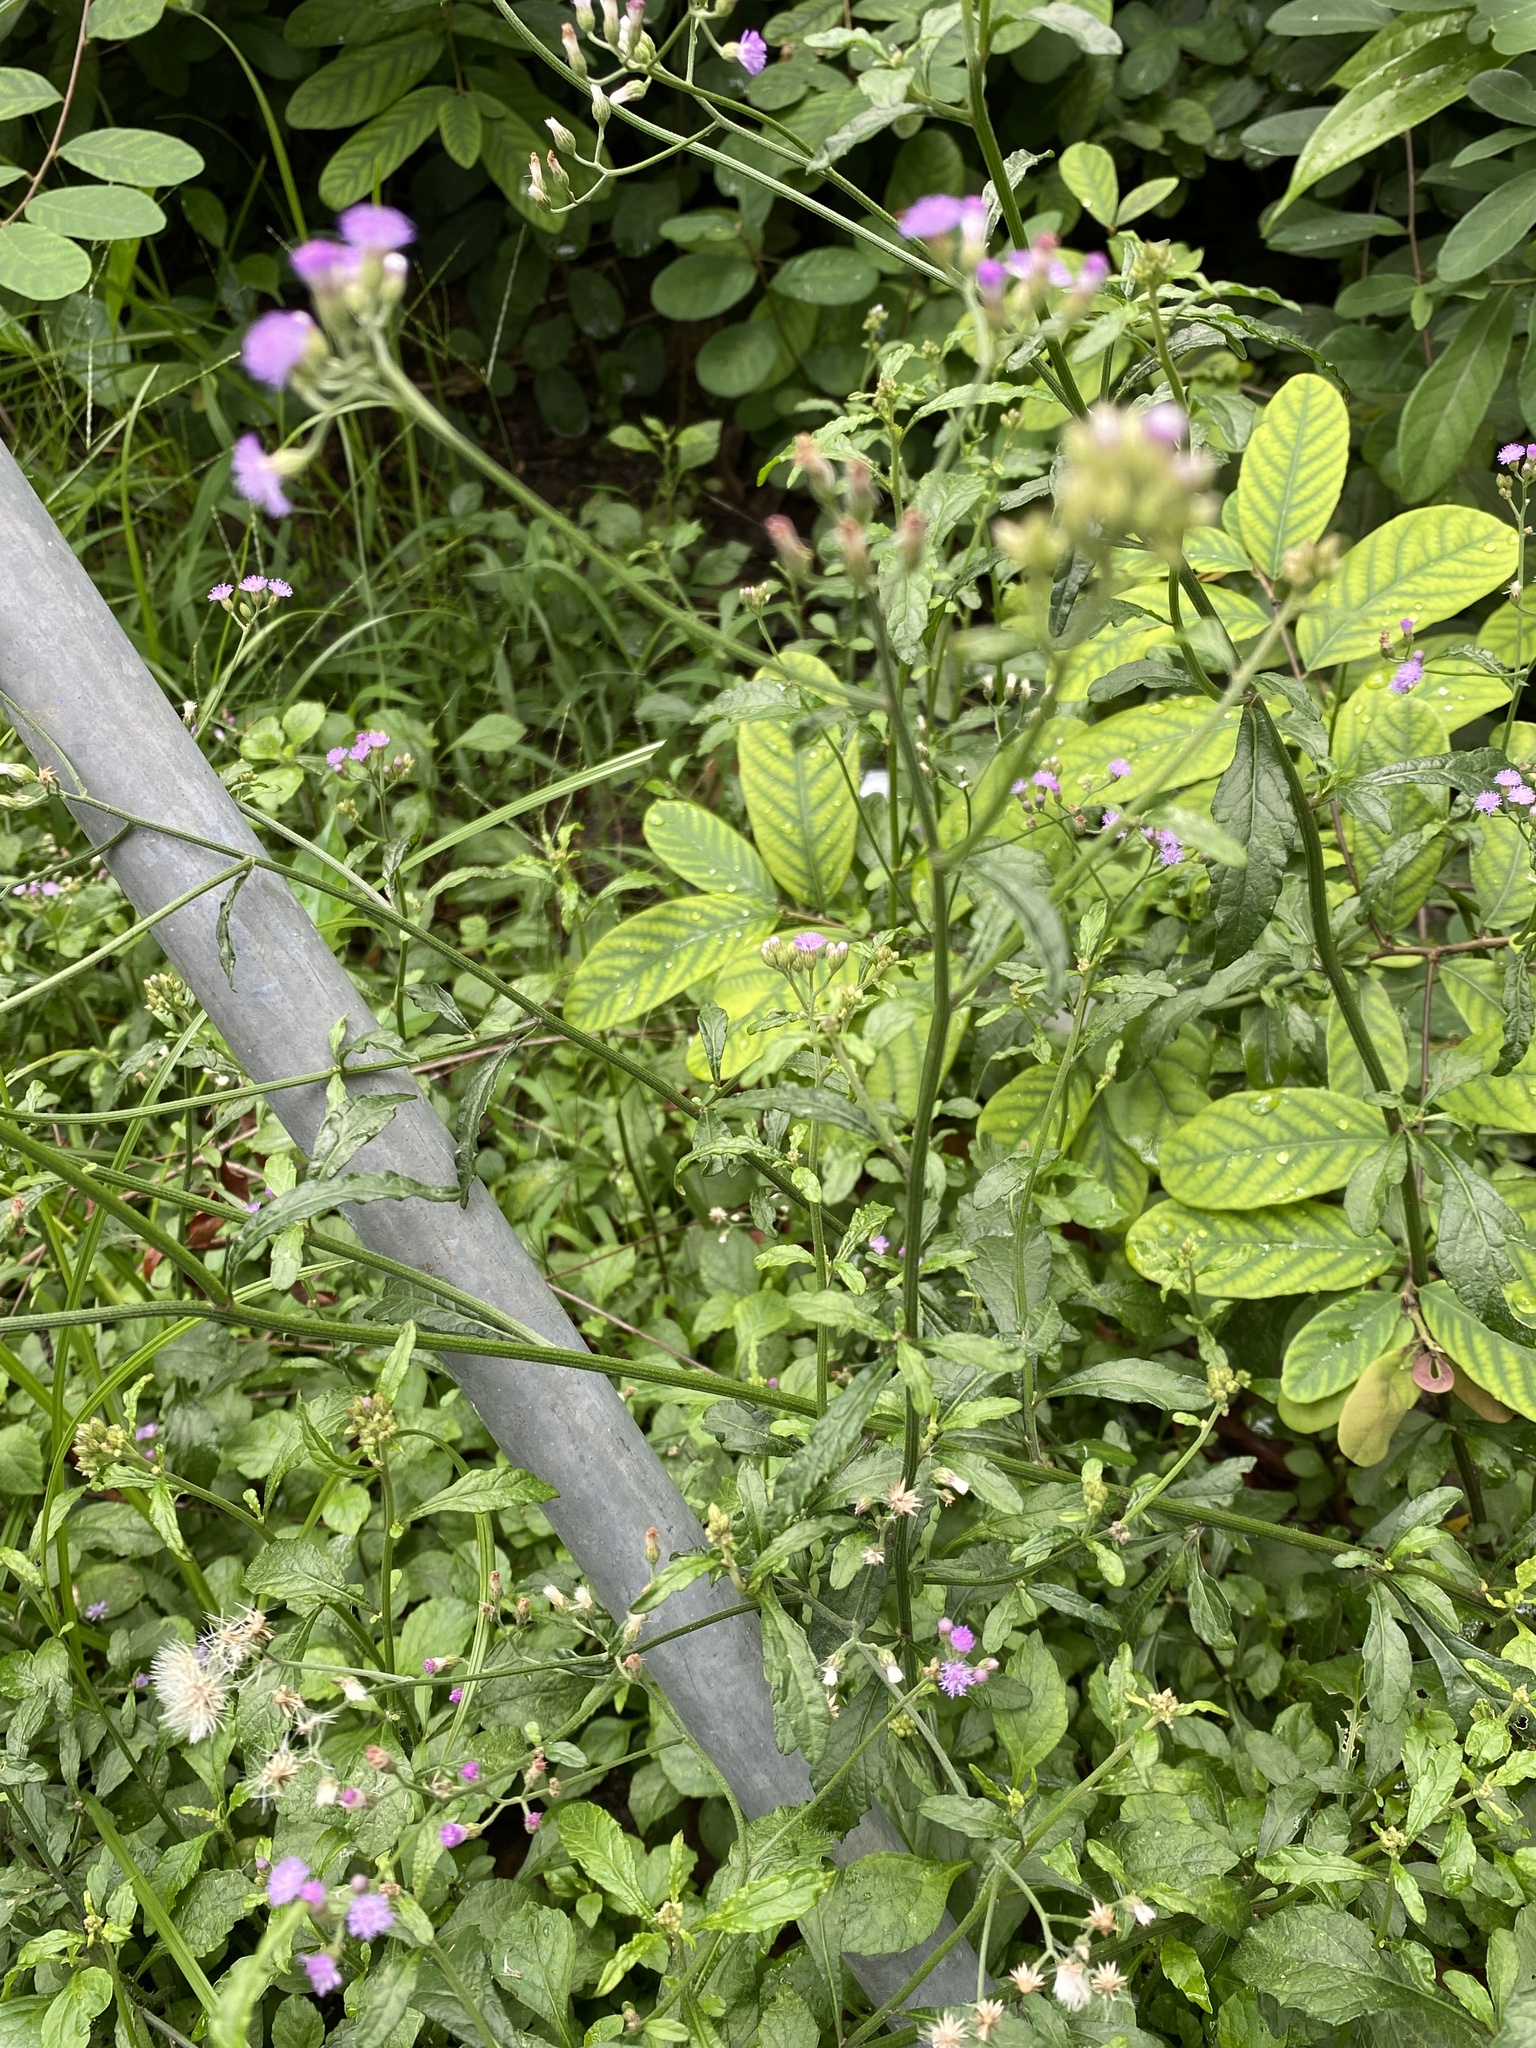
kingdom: Plantae
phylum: Tracheophyta
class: Magnoliopsida
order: Asterales
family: Asteraceae
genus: Cyanthillium
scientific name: Cyanthillium cinereum
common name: Little ironweed
